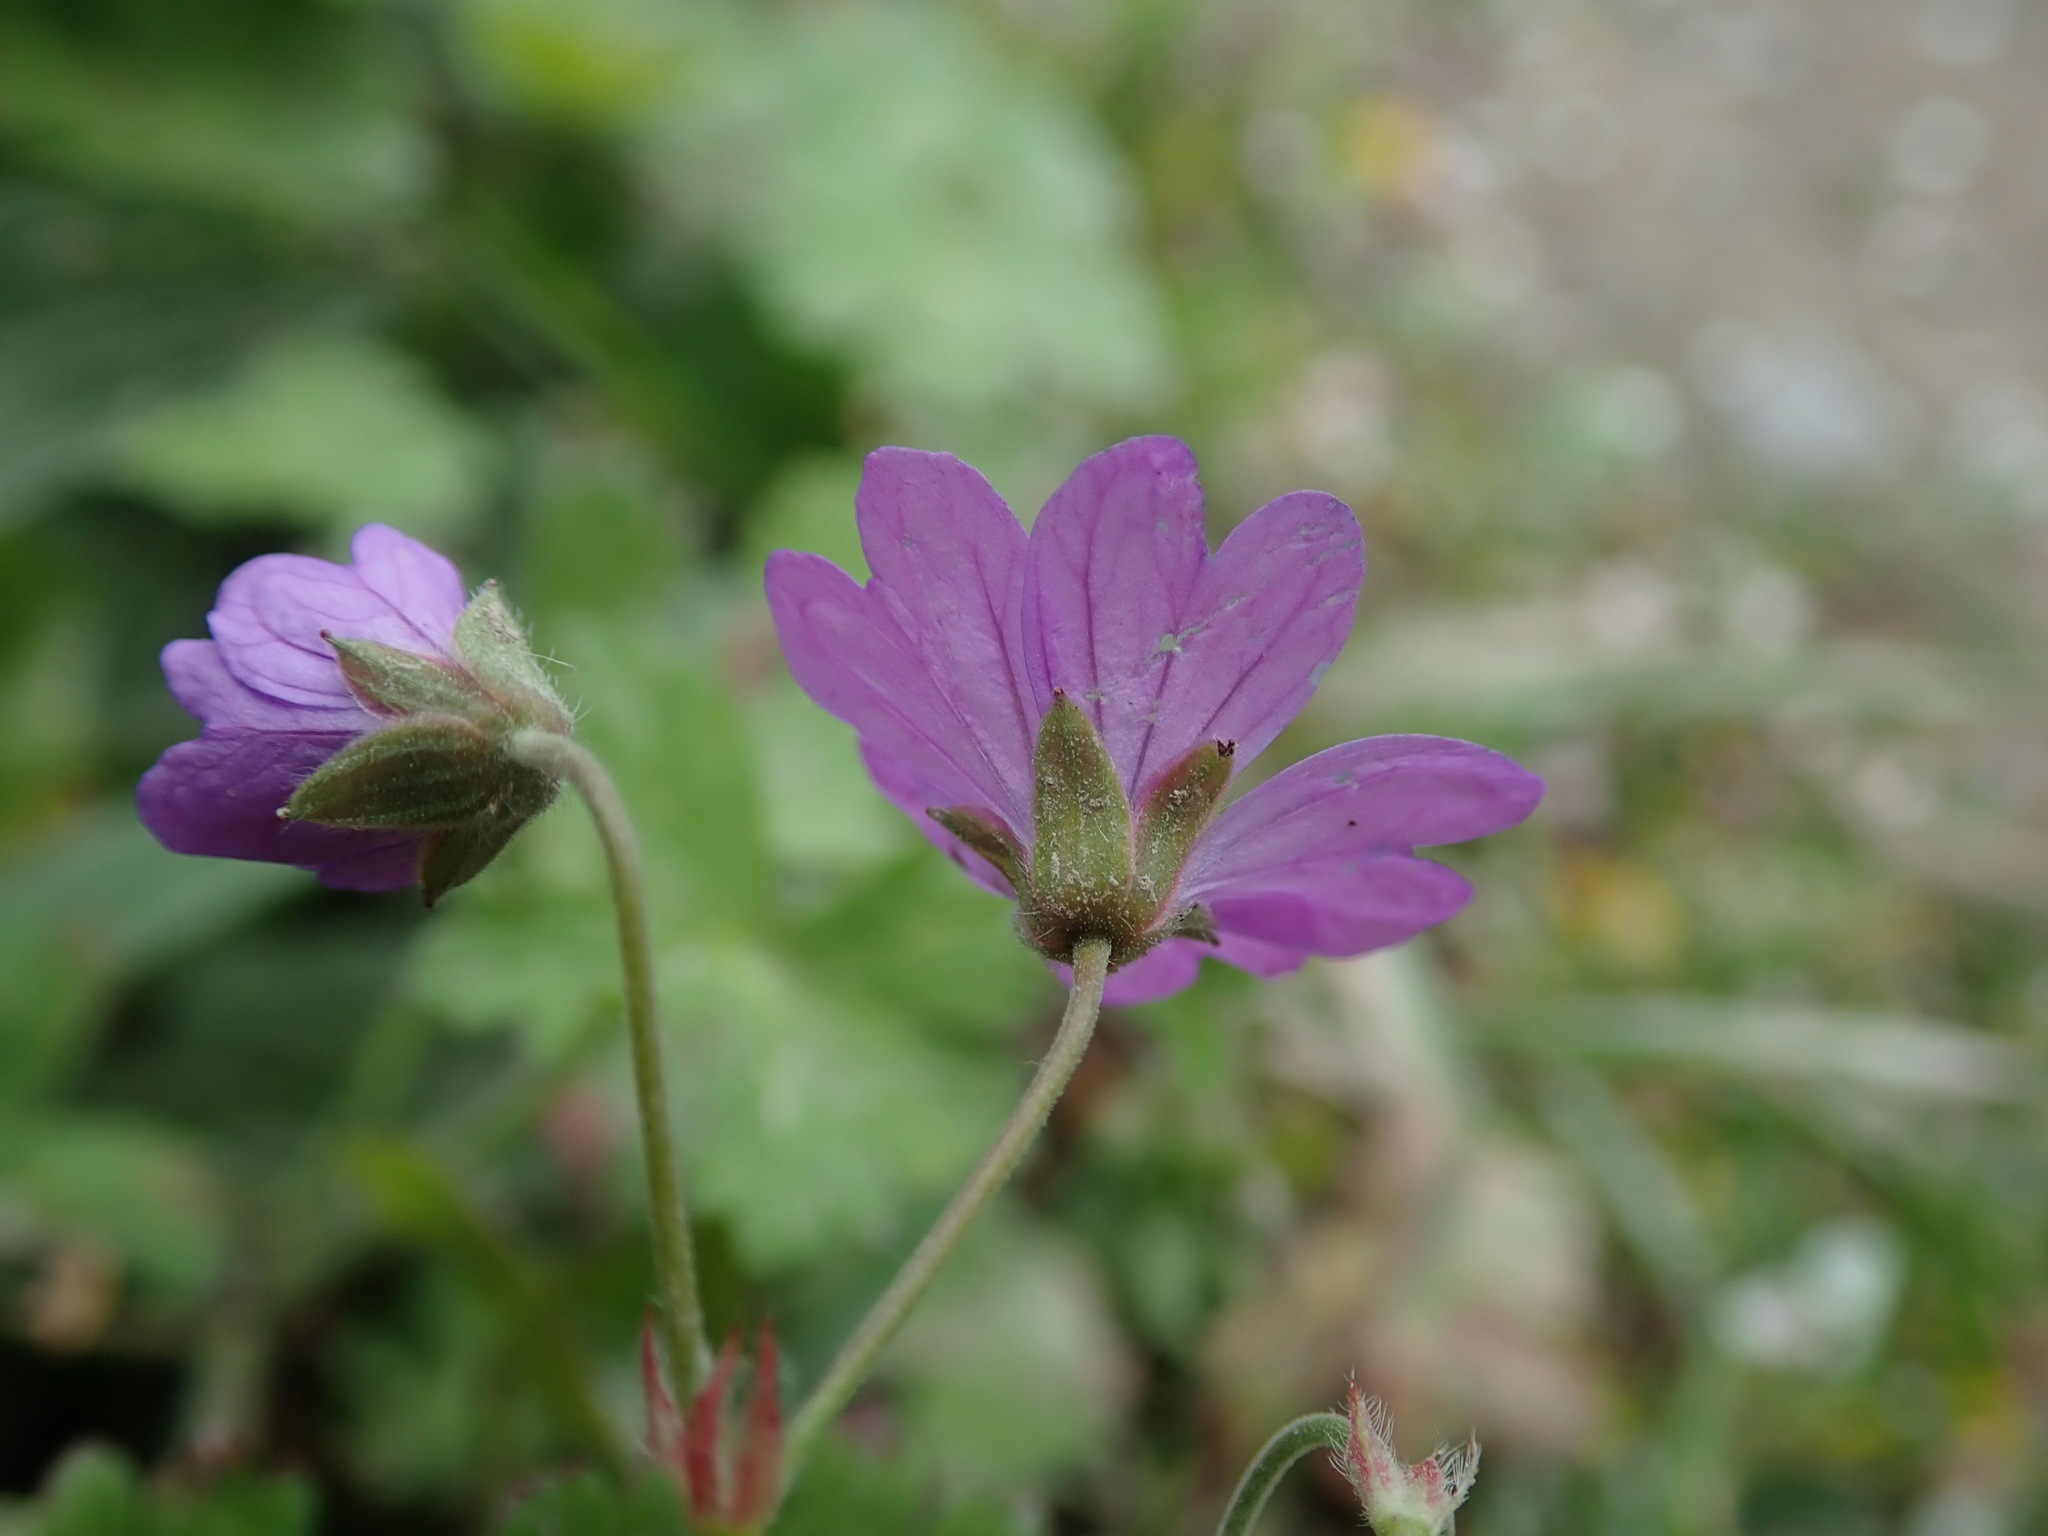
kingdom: Plantae
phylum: Tracheophyta
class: Magnoliopsida
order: Geraniales
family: Geraniaceae
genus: Geranium
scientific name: Geranium pyrenaicum
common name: Hedgerow crane's-bill
